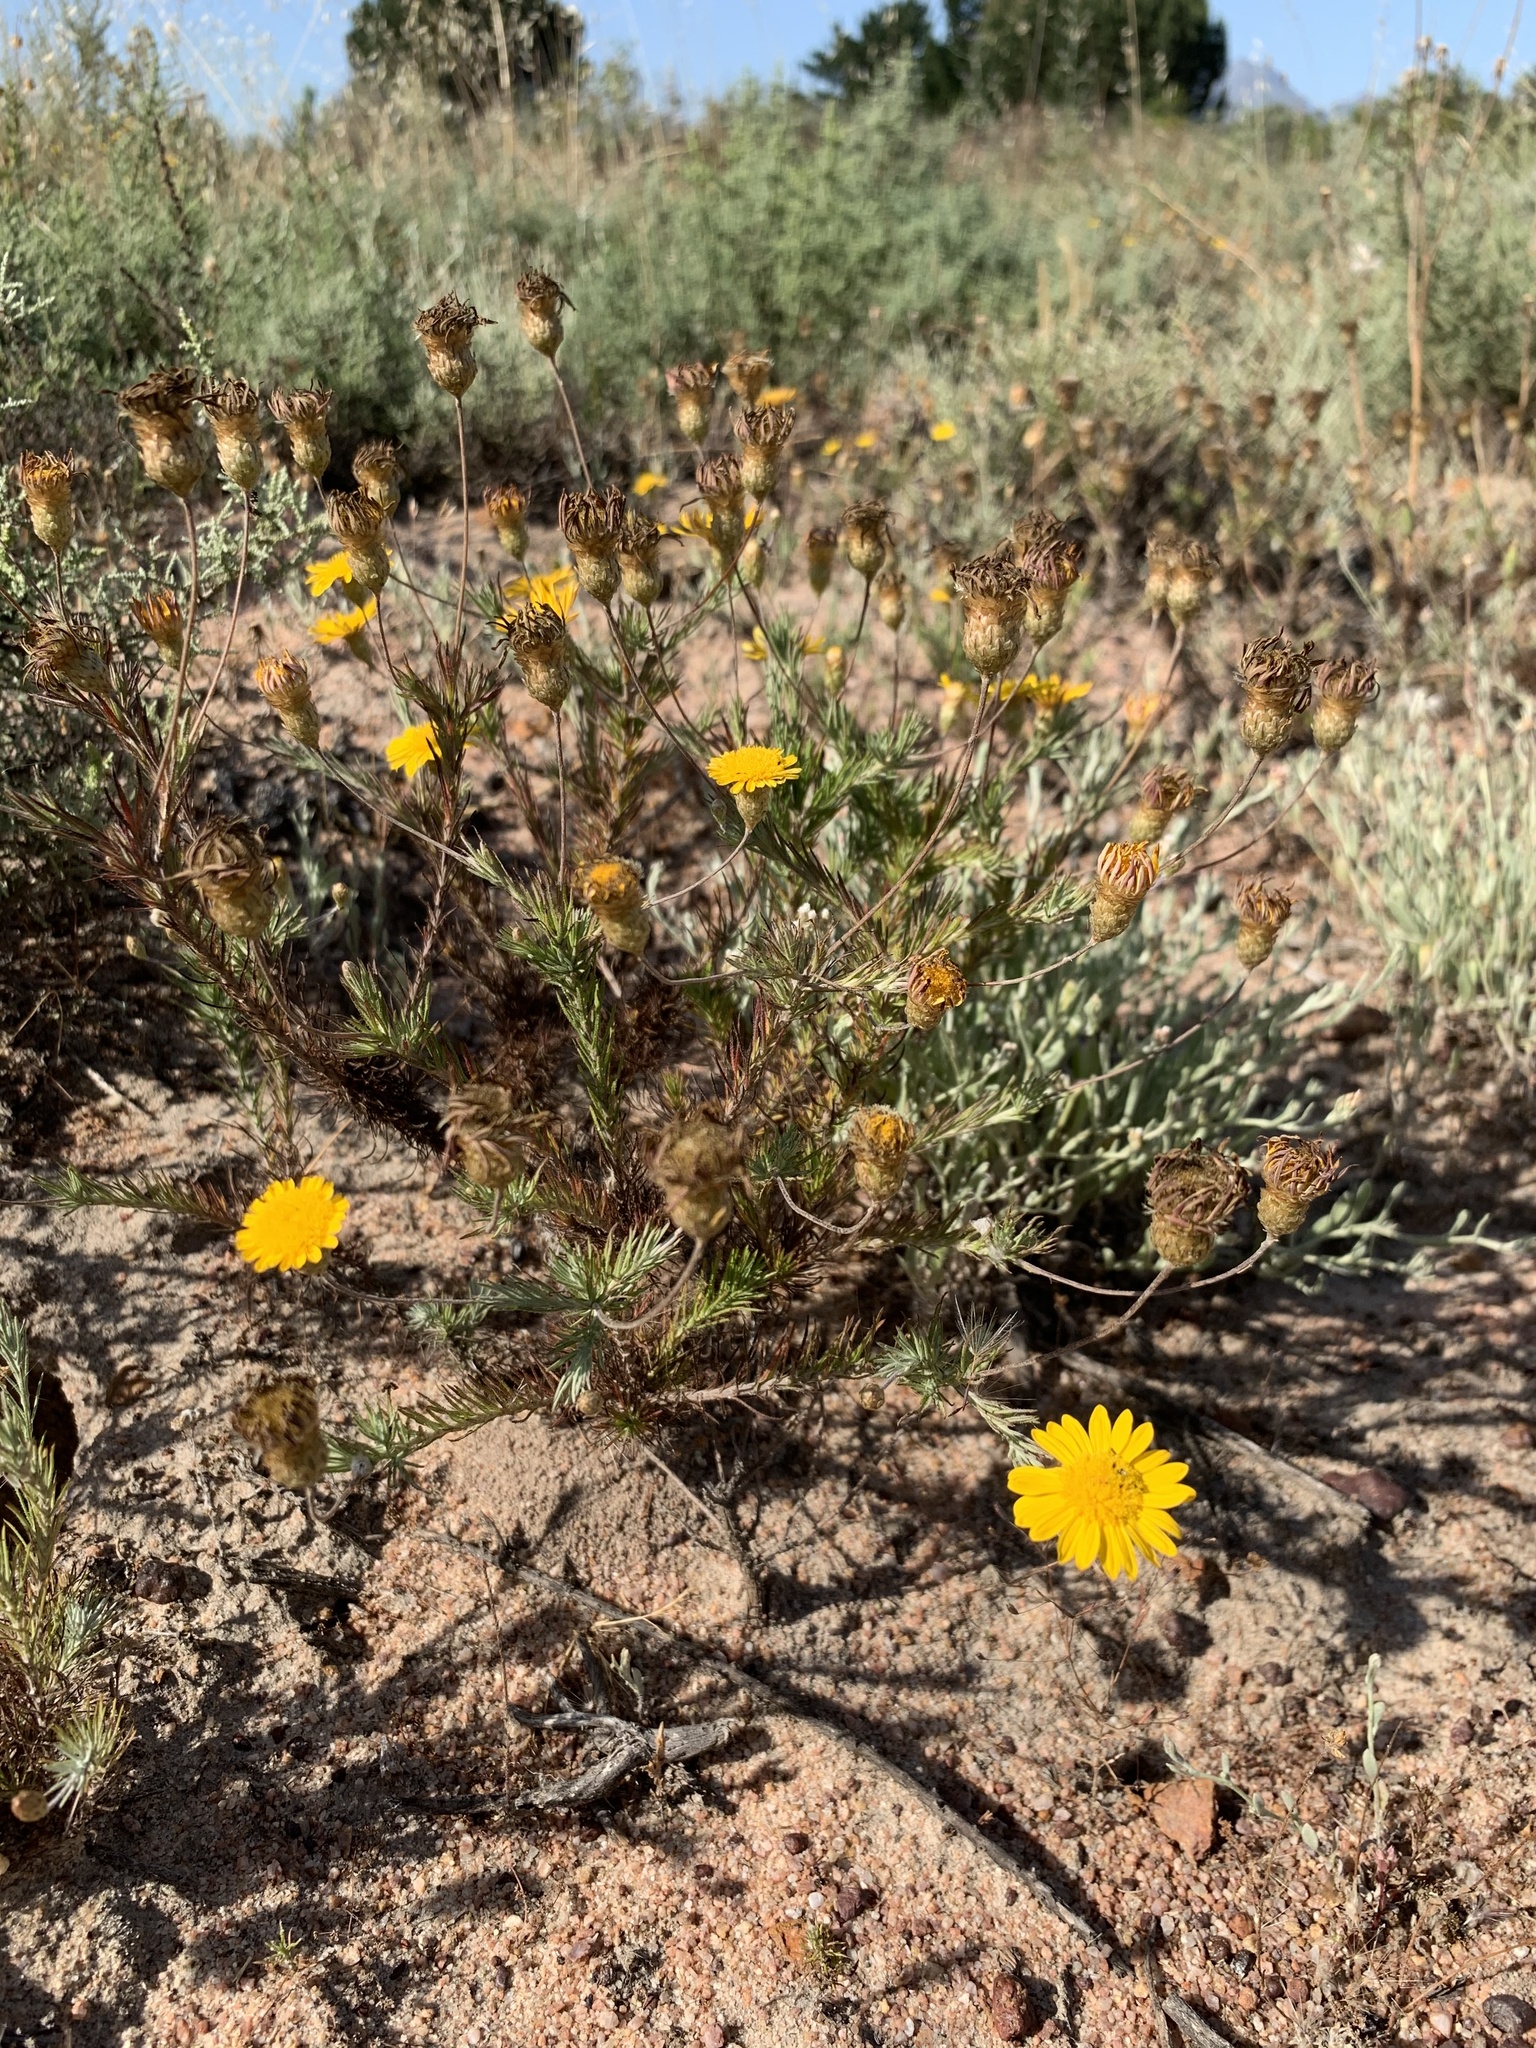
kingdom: Plantae
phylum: Tracheophyta
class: Magnoliopsida
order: Asterales
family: Asteraceae
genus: Leysera
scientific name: Leysera gnaphalodes
